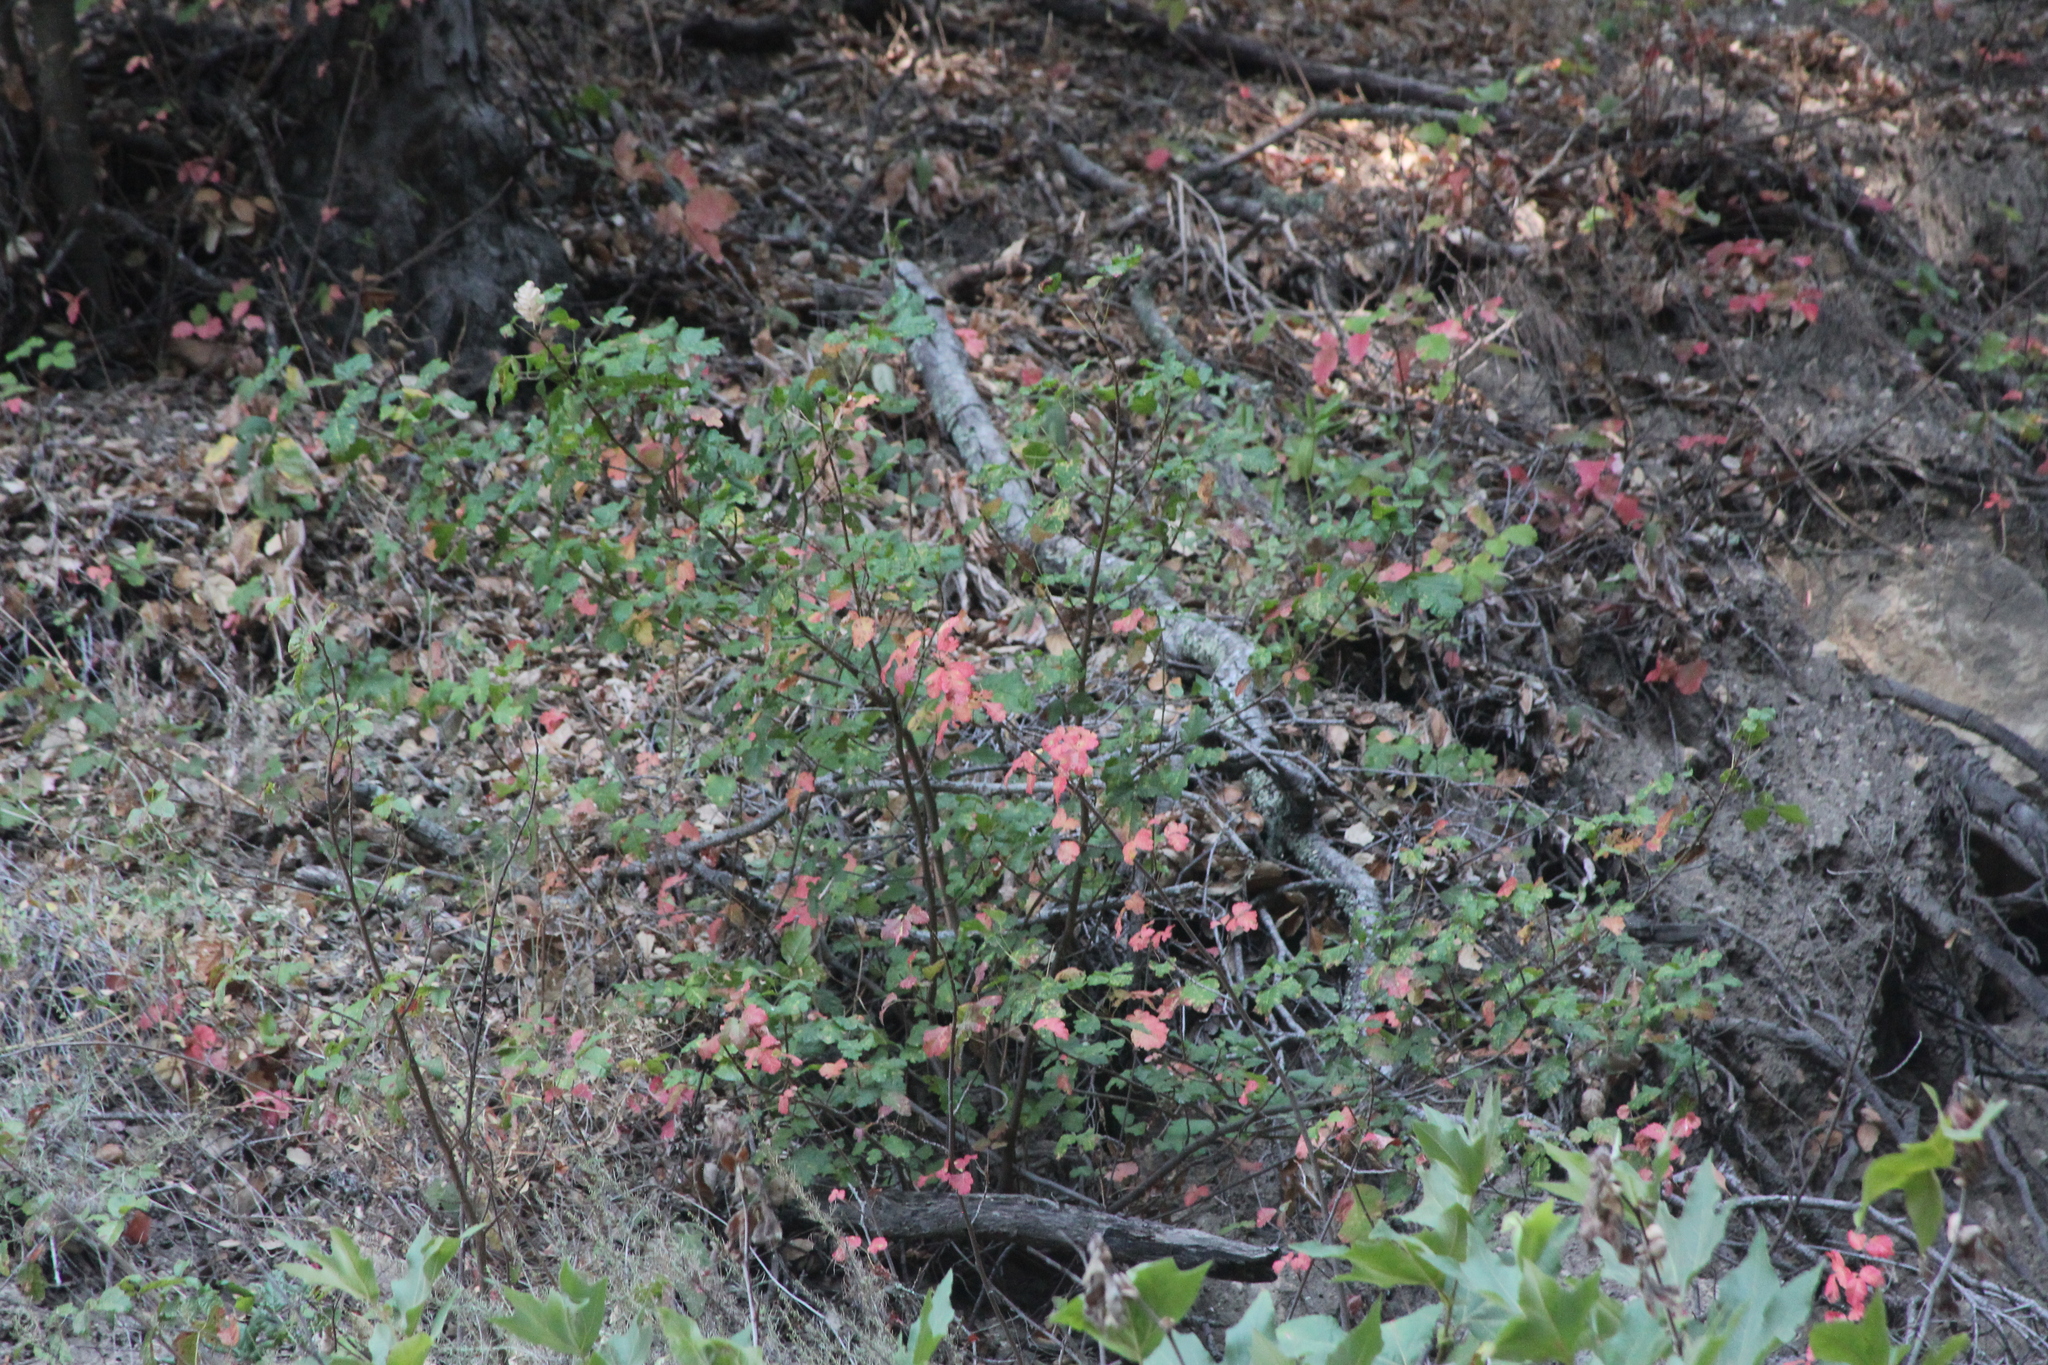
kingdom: Plantae
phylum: Tracheophyta
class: Magnoliopsida
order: Sapindales
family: Anacardiaceae
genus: Toxicodendron
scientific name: Toxicodendron diversilobum
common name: Pacific poison-oak
